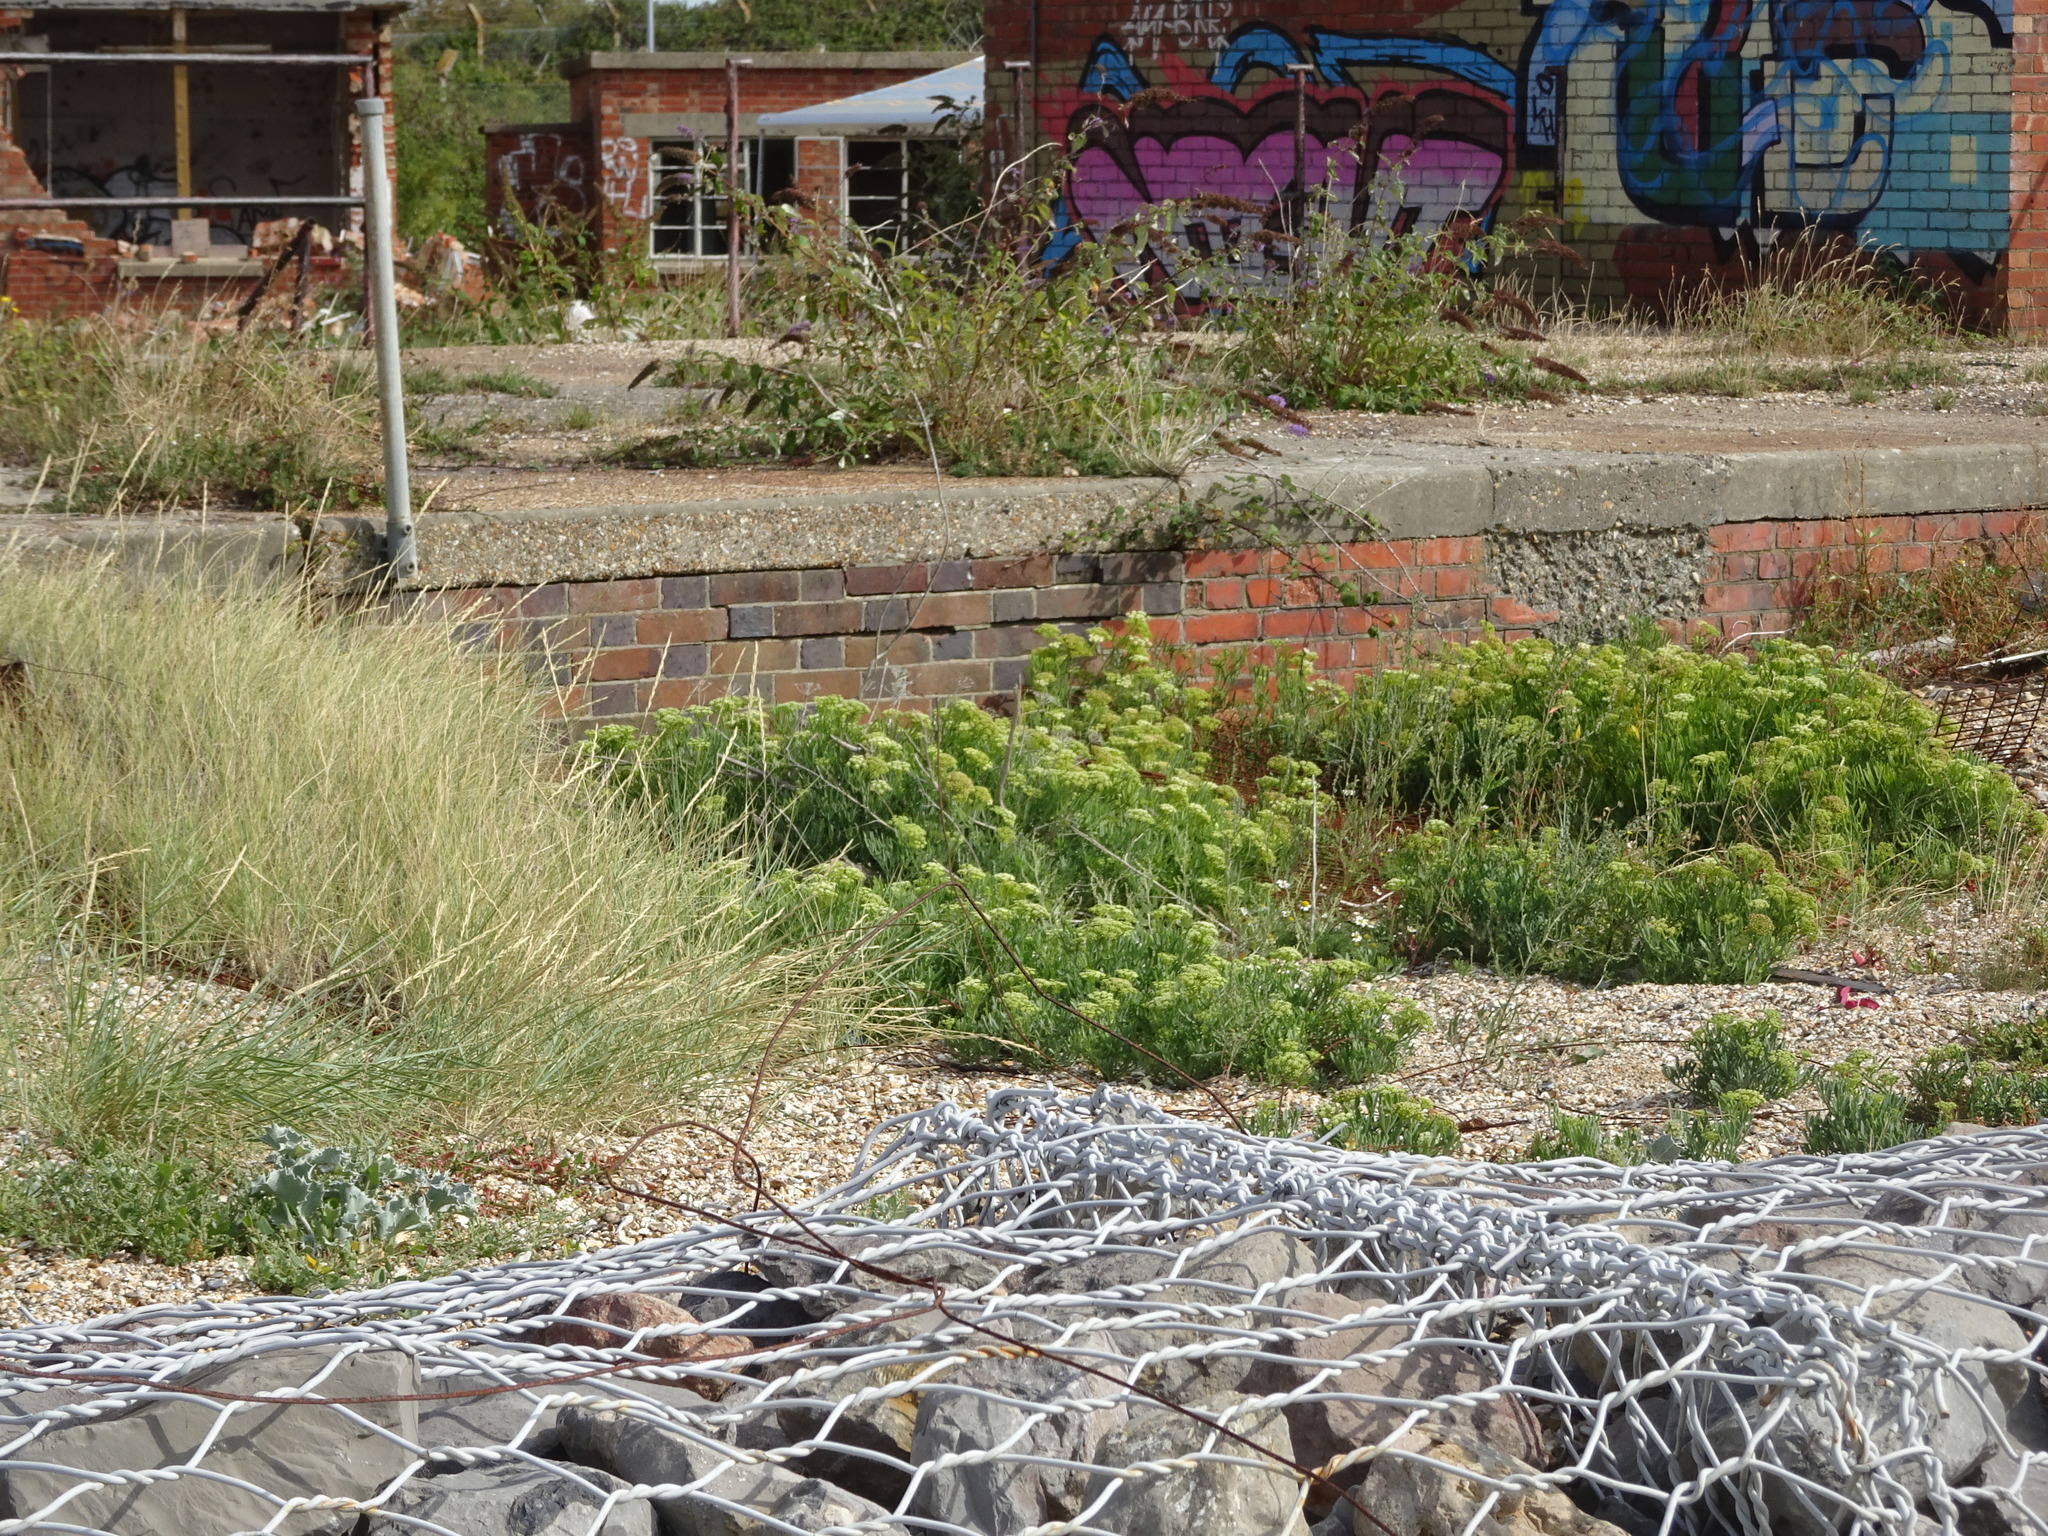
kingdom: Plantae
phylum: Tracheophyta
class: Magnoliopsida
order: Apiales
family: Apiaceae
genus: Crithmum
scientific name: Crithmum maritimum
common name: Rock samphire
